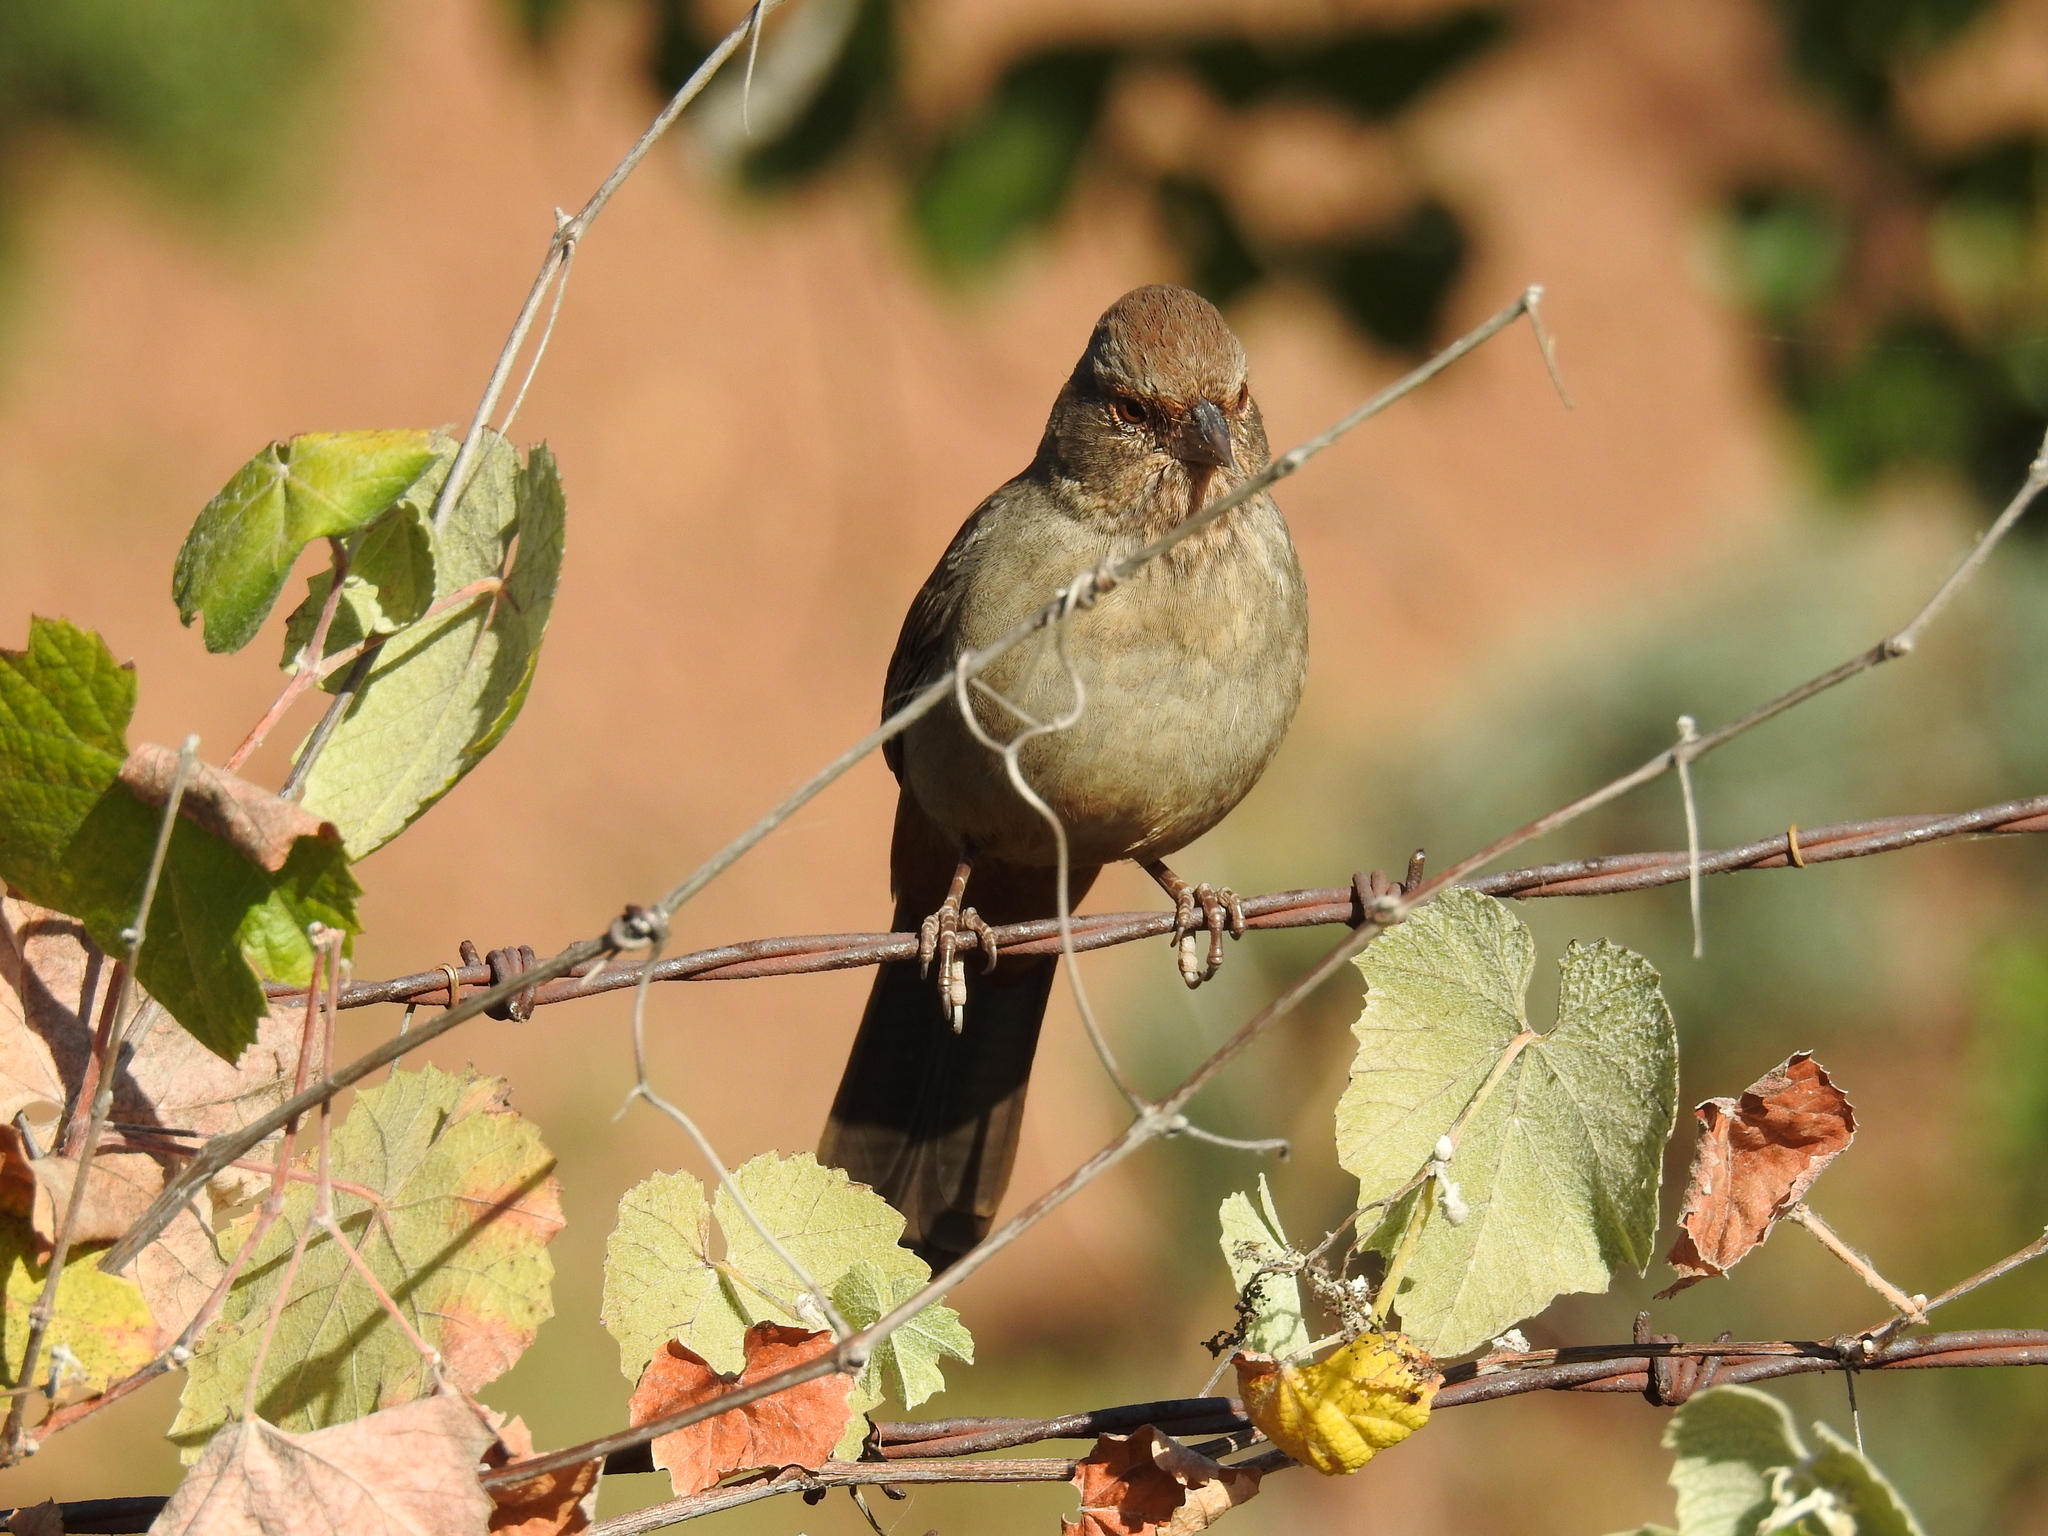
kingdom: Animalia
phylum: Chordata
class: Aves
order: Passeriformes
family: Passerellidae
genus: Melozone
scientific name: Melozone crissalis
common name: California towhee
